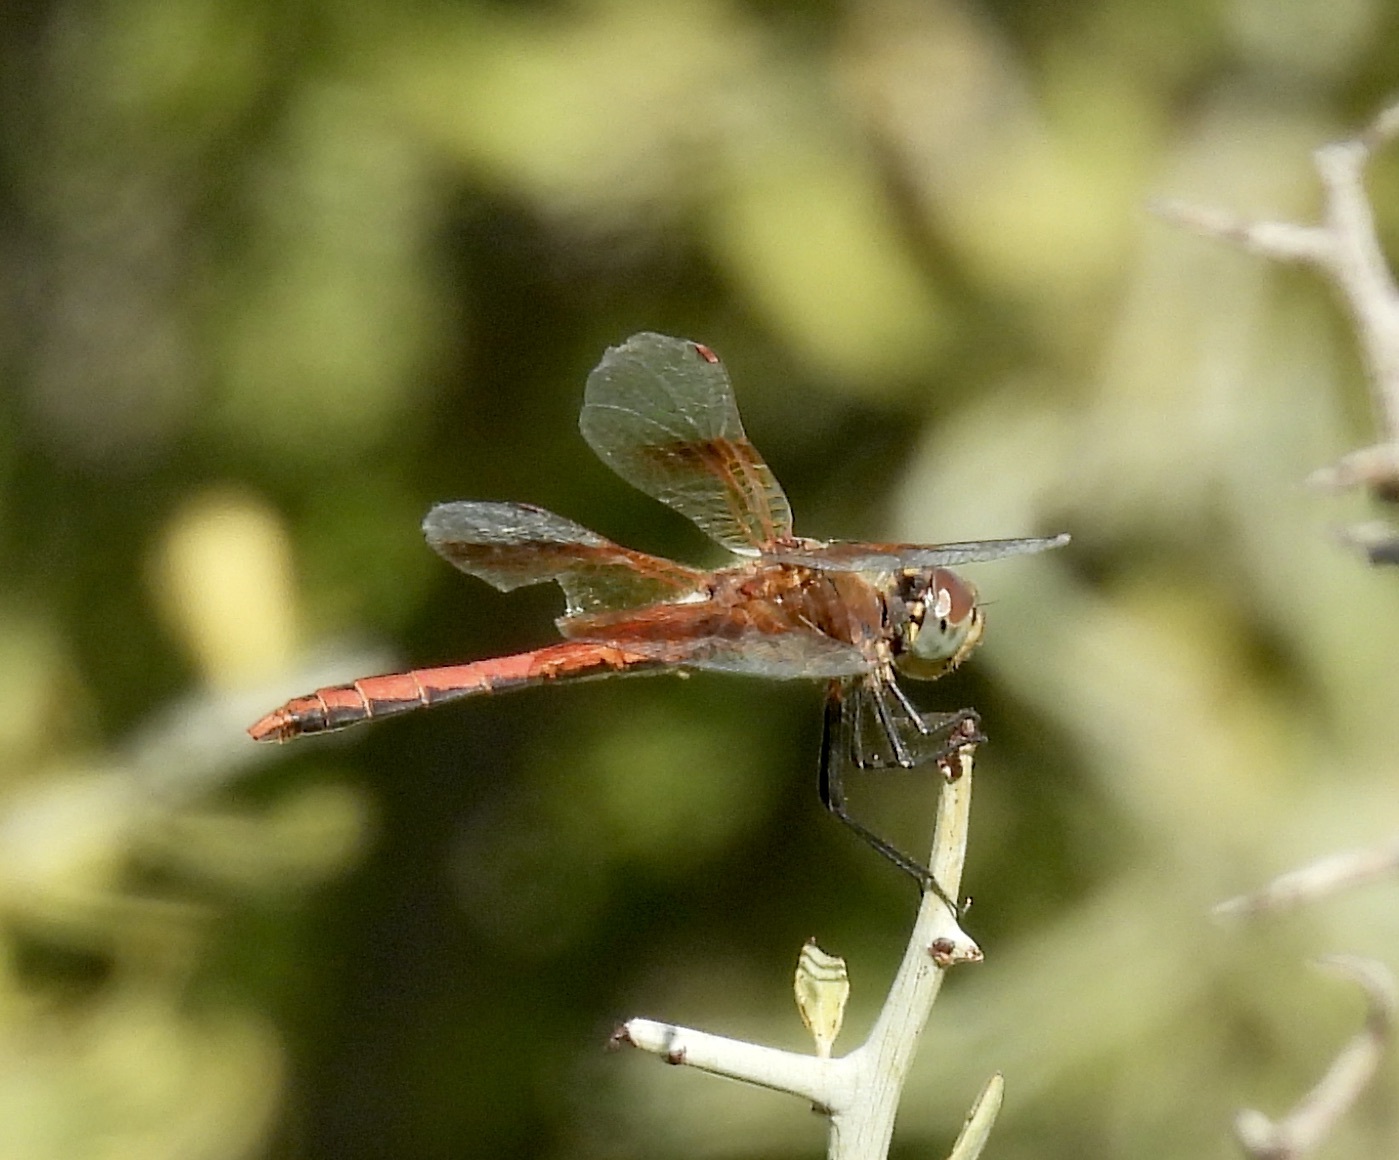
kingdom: Animalia
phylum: Arthropoda
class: Insecta
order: Odonata
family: Libellulidae
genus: Sympetrum
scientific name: Sympetrum semicinctum
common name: Band-winged meadowhawk
